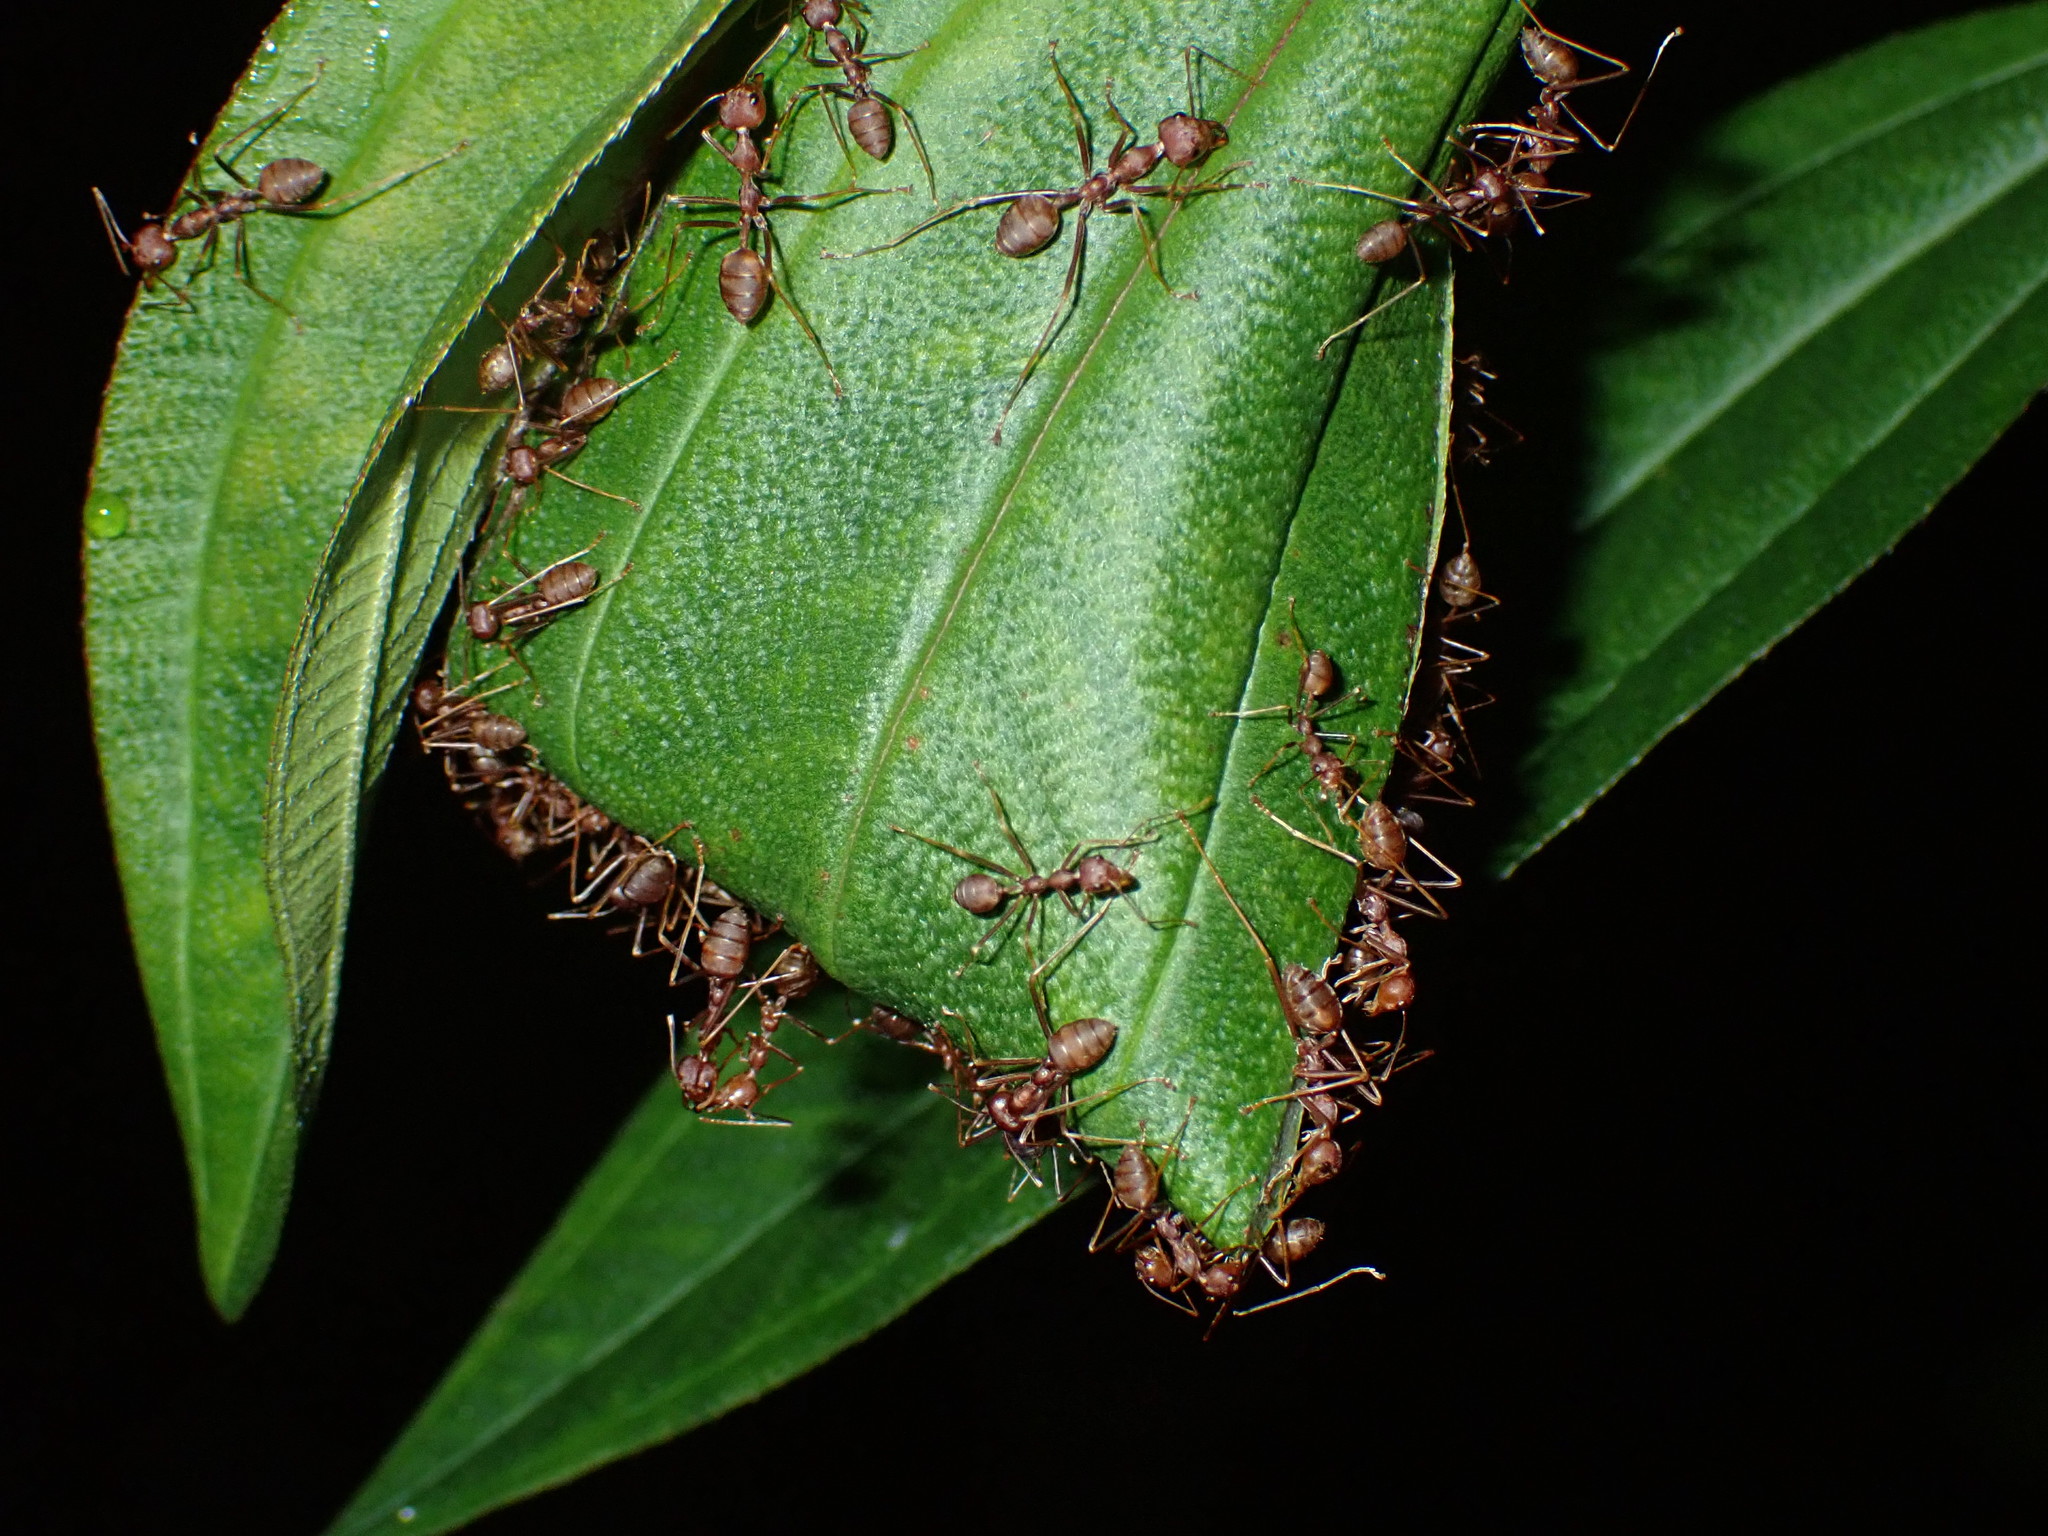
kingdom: Animalia
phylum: Arthropoda
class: Insecta
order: Hymenoptera
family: Formicidae
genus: Oecophylla
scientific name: Oecophylla smaragdina
